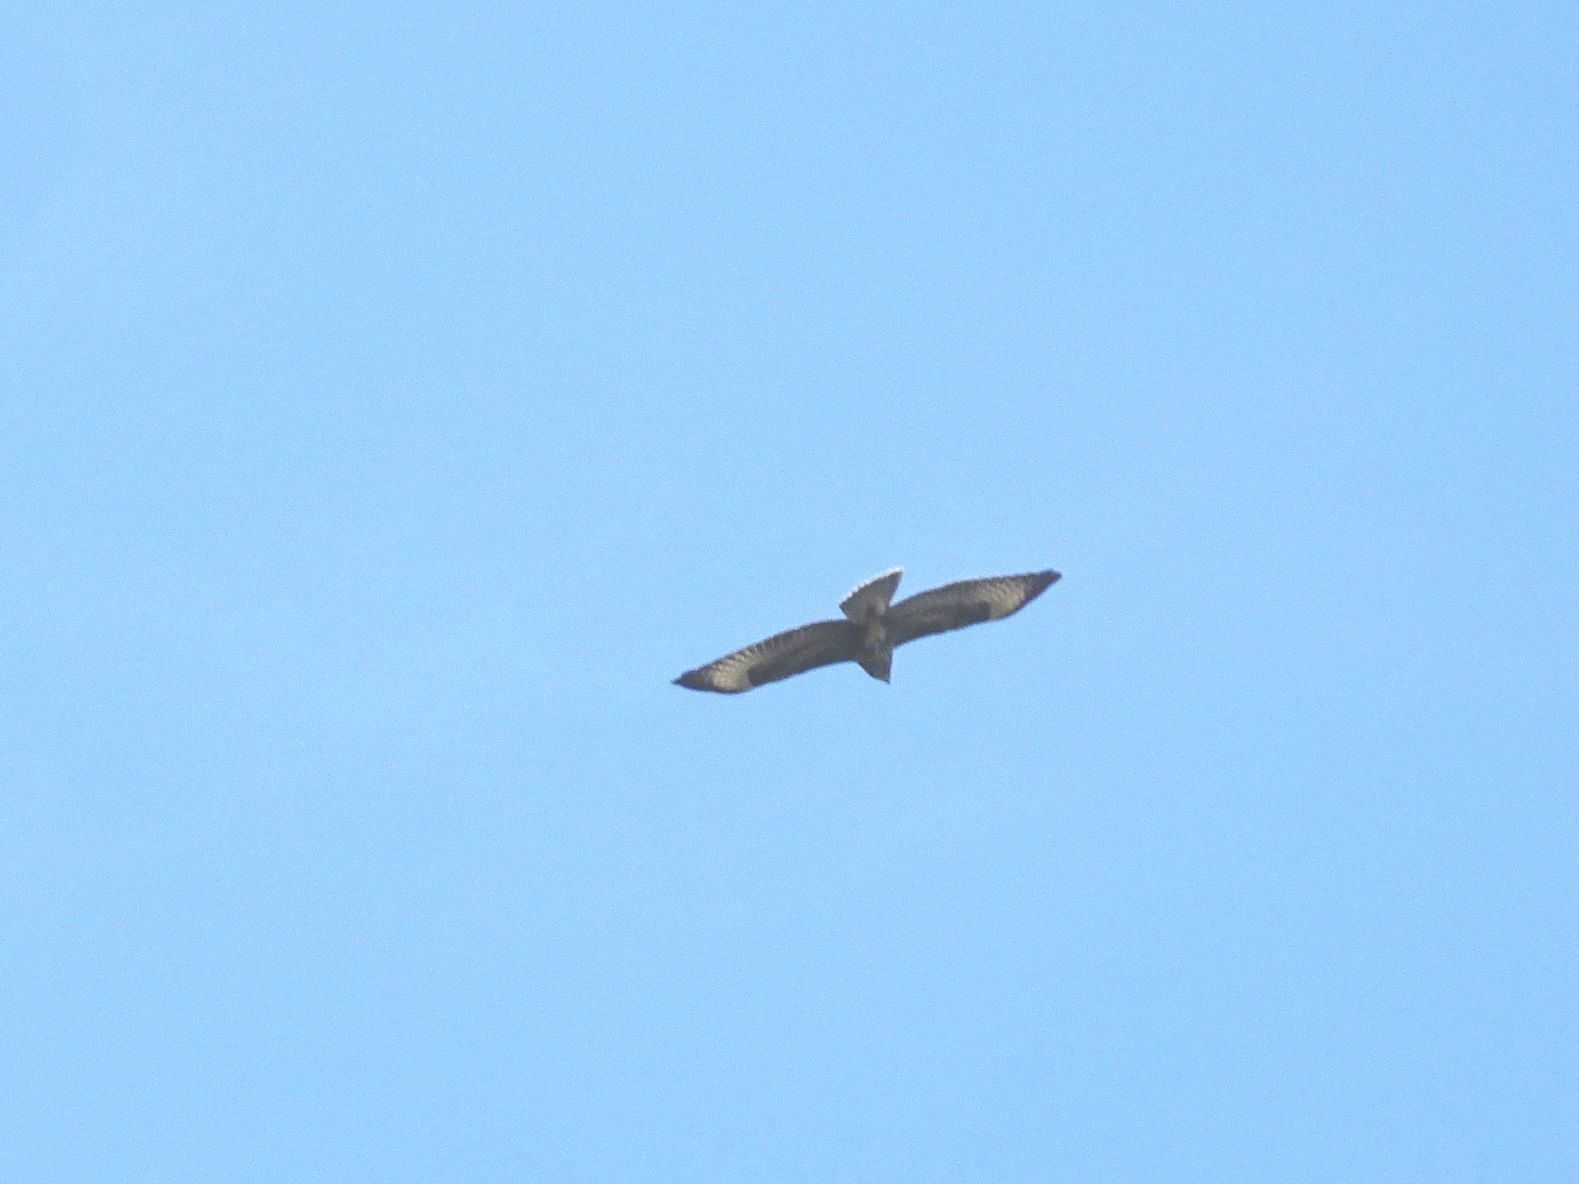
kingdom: Animalia
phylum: Chordata
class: Aves
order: Accipitriformes
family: Accipitridae
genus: Buteo
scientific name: Buteo buteo
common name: Common buzzard
